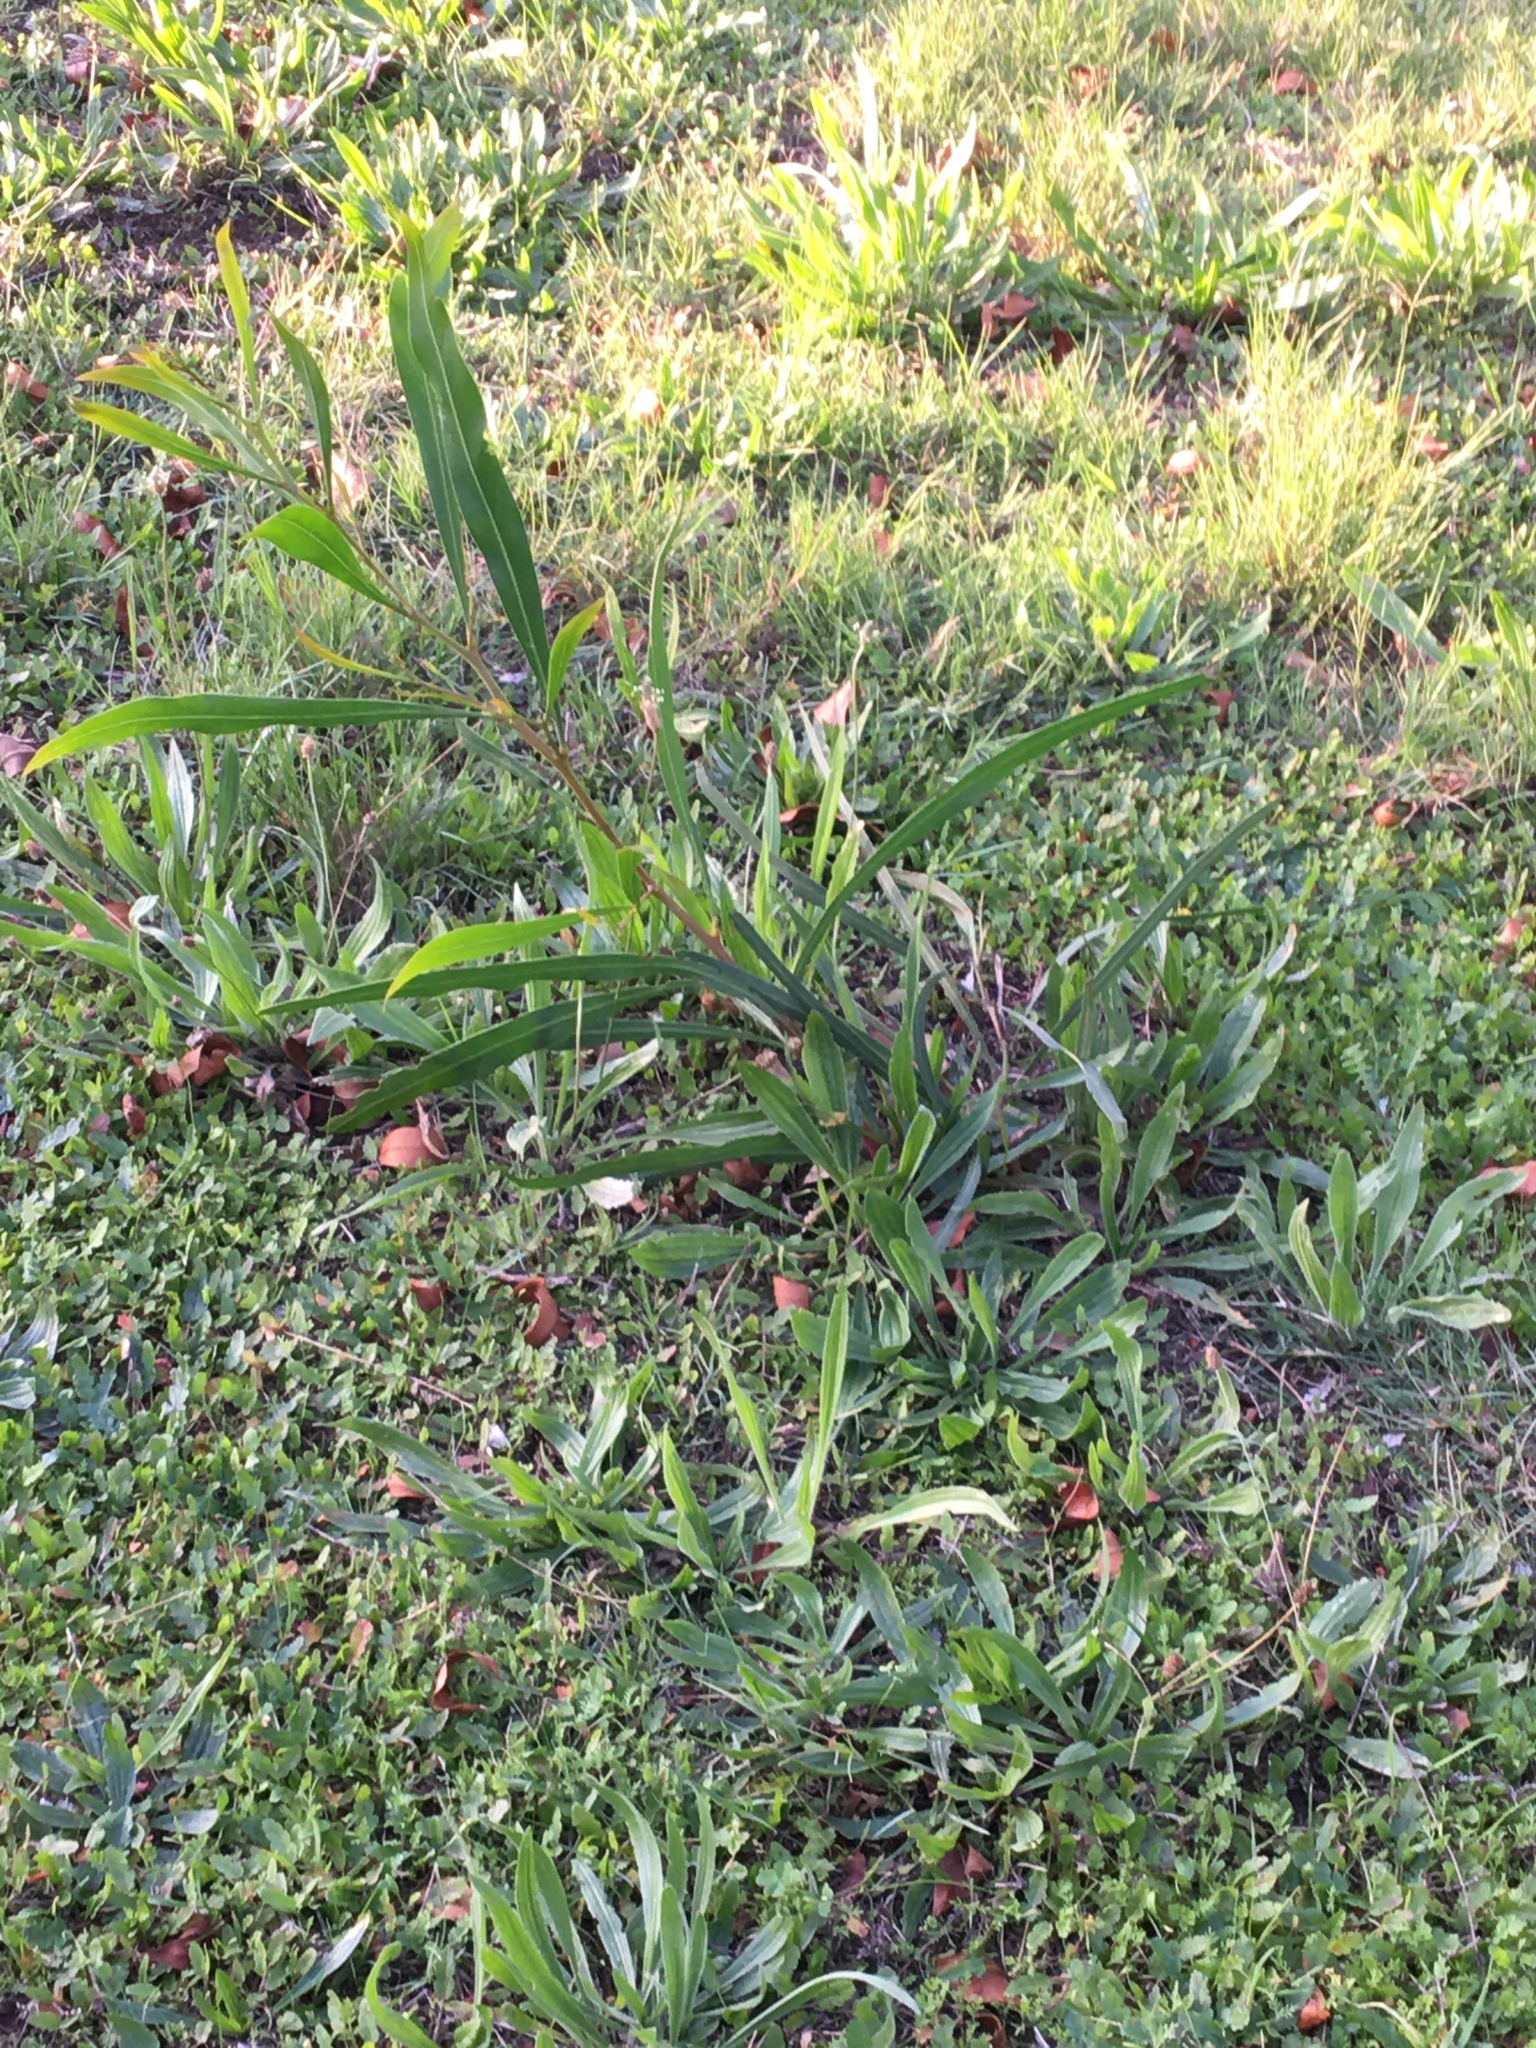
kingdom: Plantae
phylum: Tracheophyta
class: Magnoliopsida
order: Fabales
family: Fabaceae
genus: Acacia
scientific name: Acacia saligna
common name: Orange wattle
